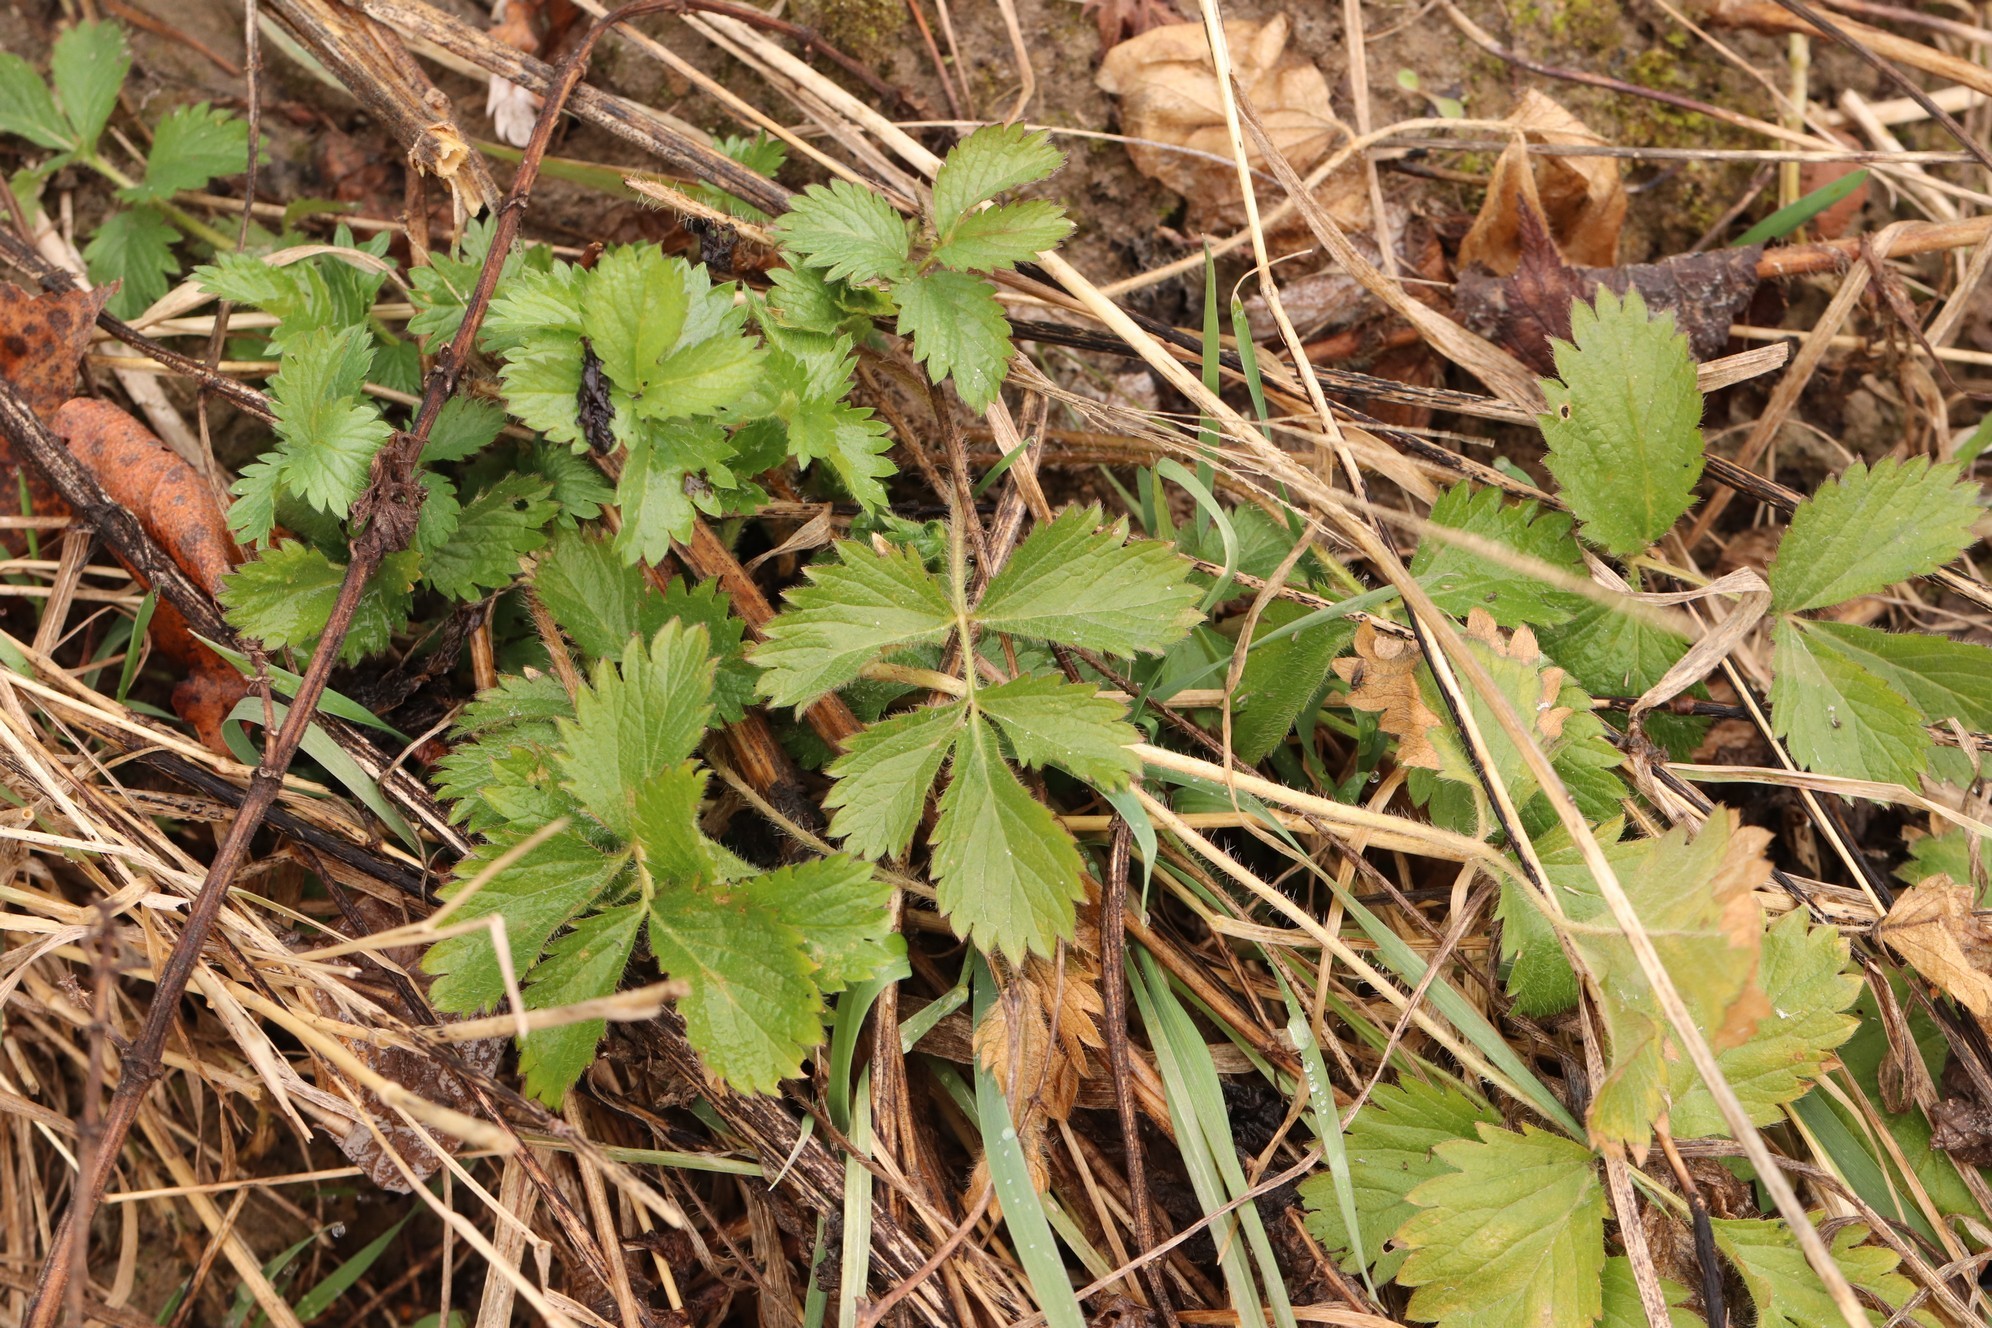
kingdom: Plantae
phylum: Tracheophyta
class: Magnoliopsida
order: Rosales
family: Rosaceae
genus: Potentilla
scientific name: Potentilla norvegica
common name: Ternate-leaved cinquefoil
